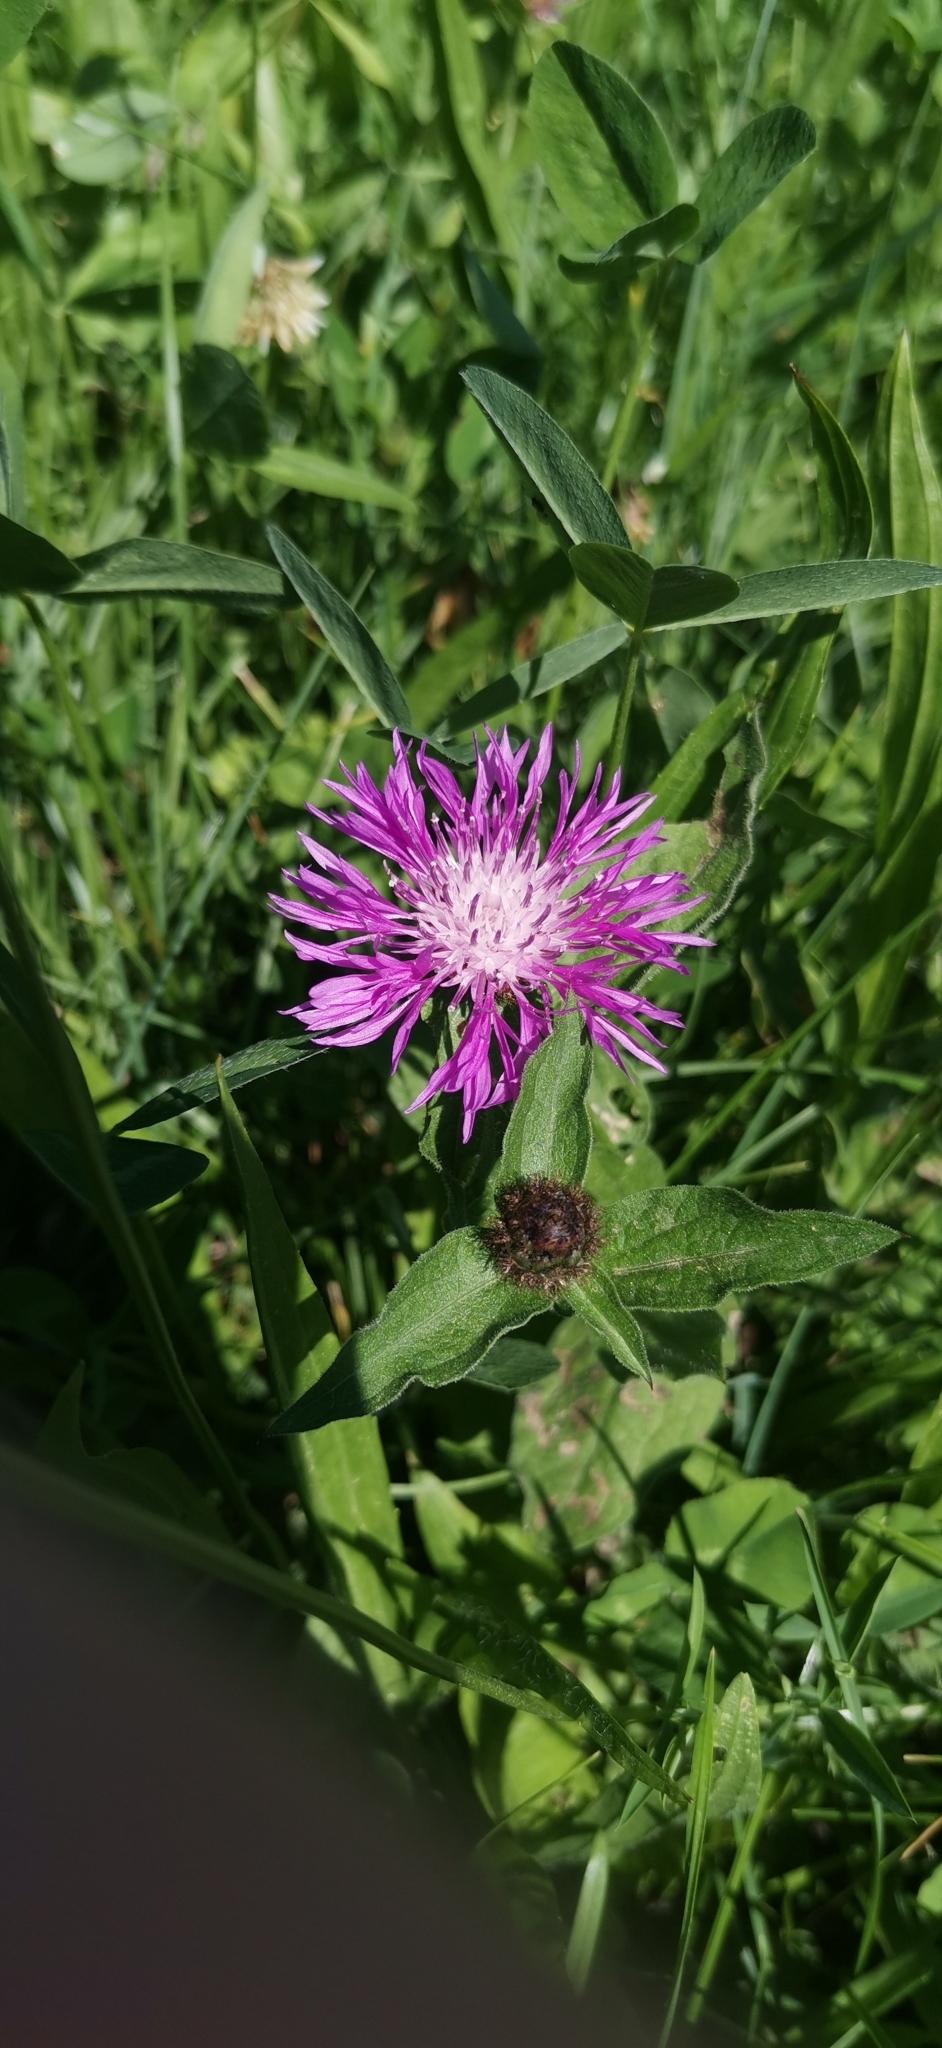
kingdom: Plantae
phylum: Tracheophyta
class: Magnoliopsida
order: Asterales
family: Asteraceae
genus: Centaurea
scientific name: Centaurea nigrescens
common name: Tyrol knapweed
